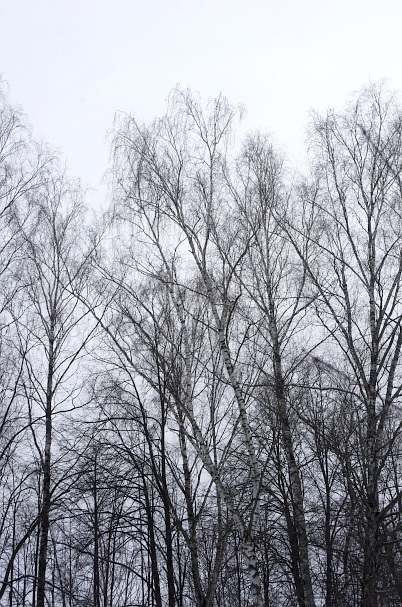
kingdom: Plantae
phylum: Tracheophyta
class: Magnoliopsida
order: Fagales
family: Betulaceae
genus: Betula
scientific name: Betula pendula
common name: Silver birch
